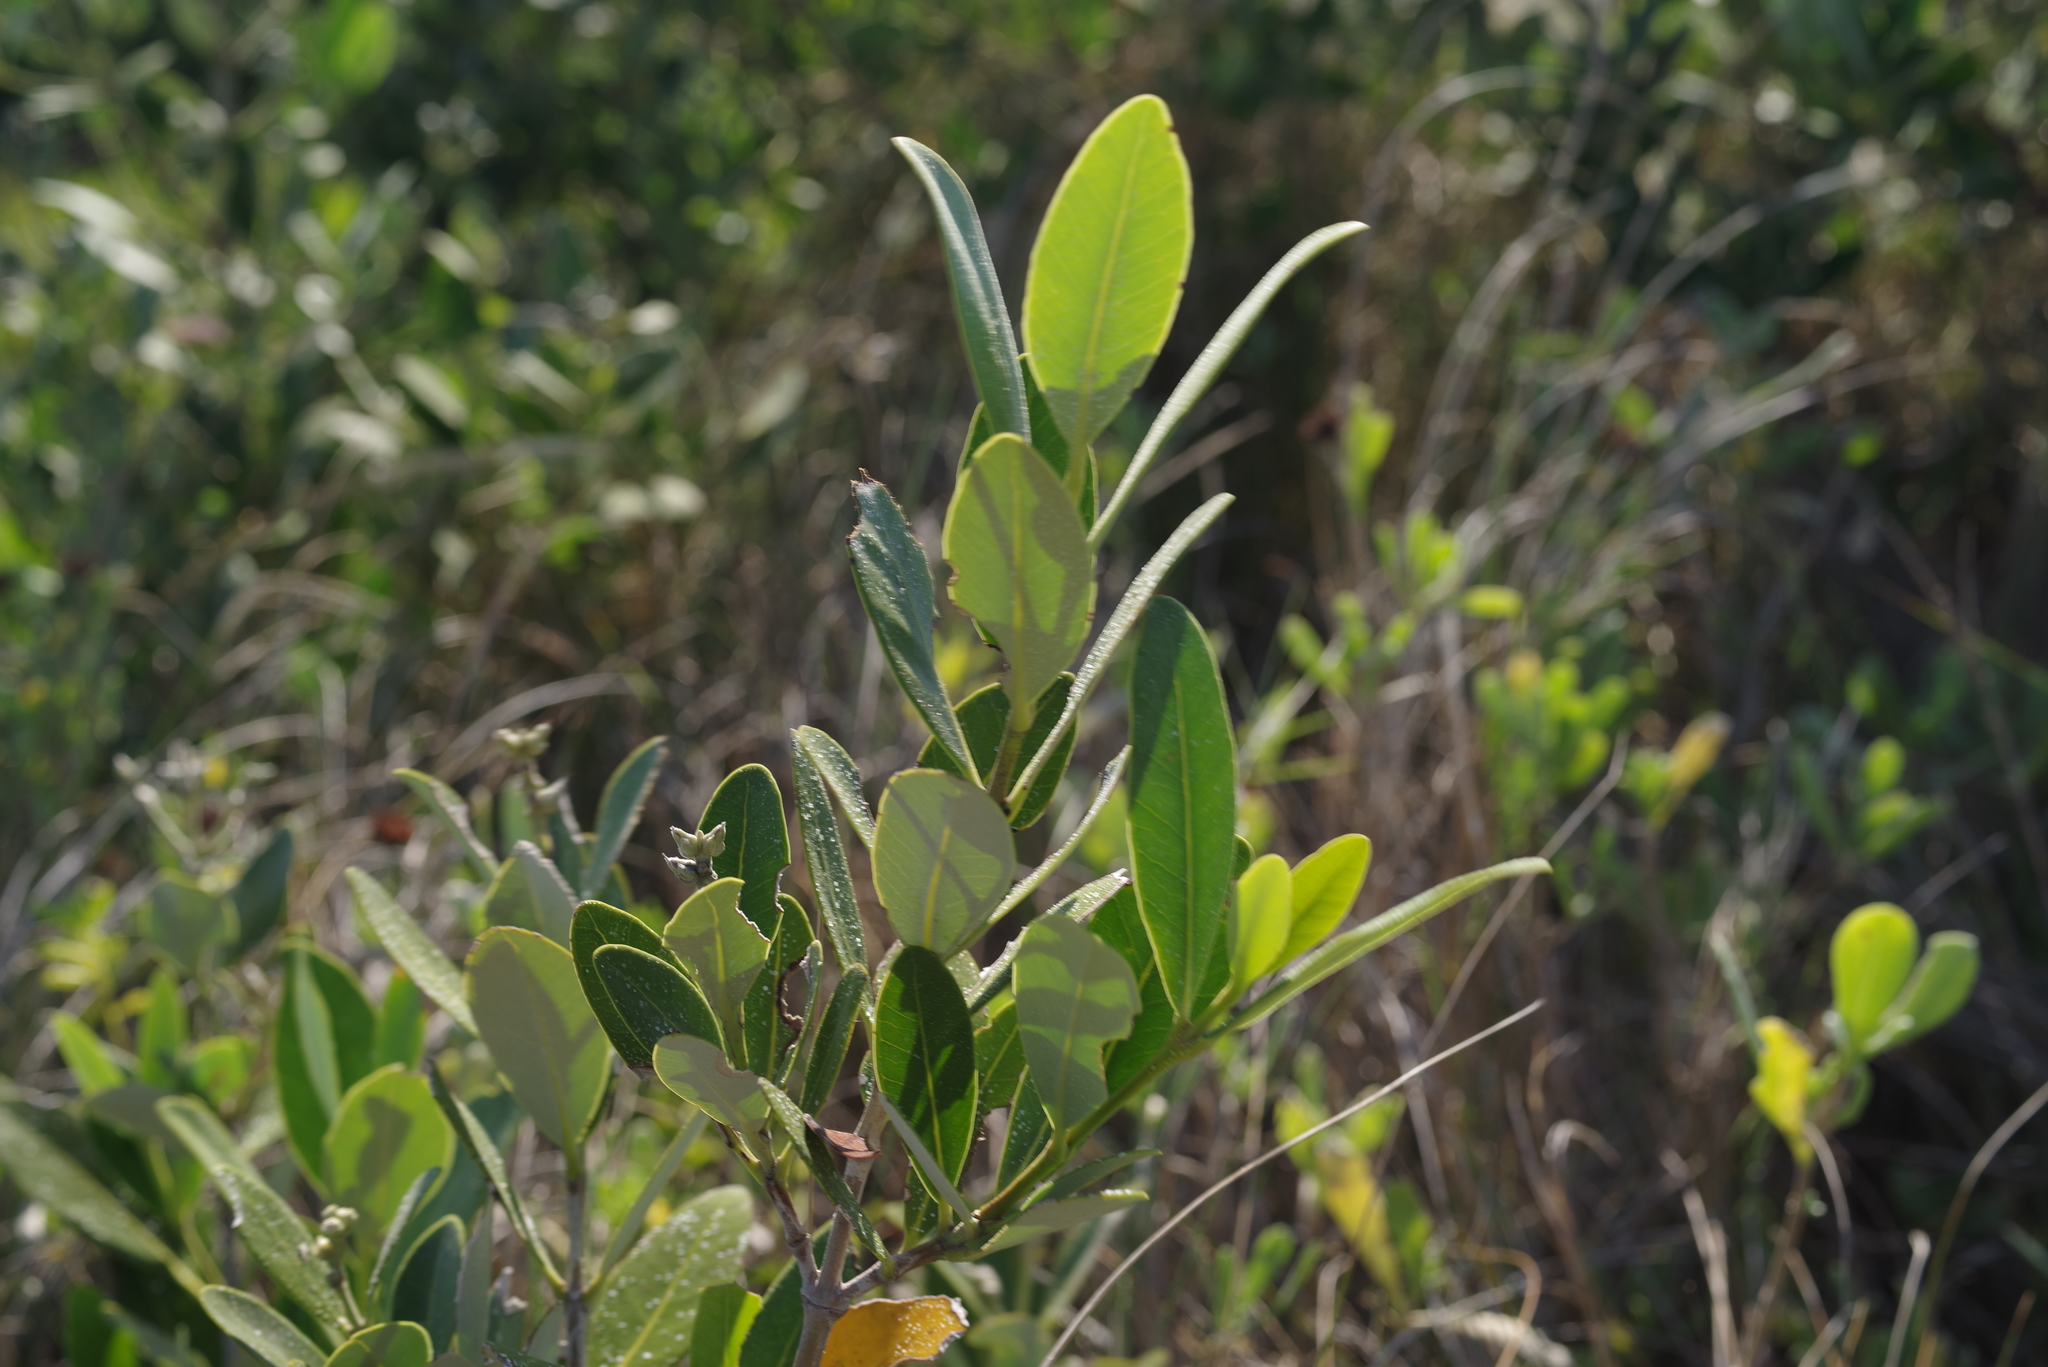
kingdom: Plantae
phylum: Tracheophyta
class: Magnoliopsida
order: Lamiales
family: Acanthaceae
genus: Avicennia
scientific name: Avicennia germinans
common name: Black mangrove
